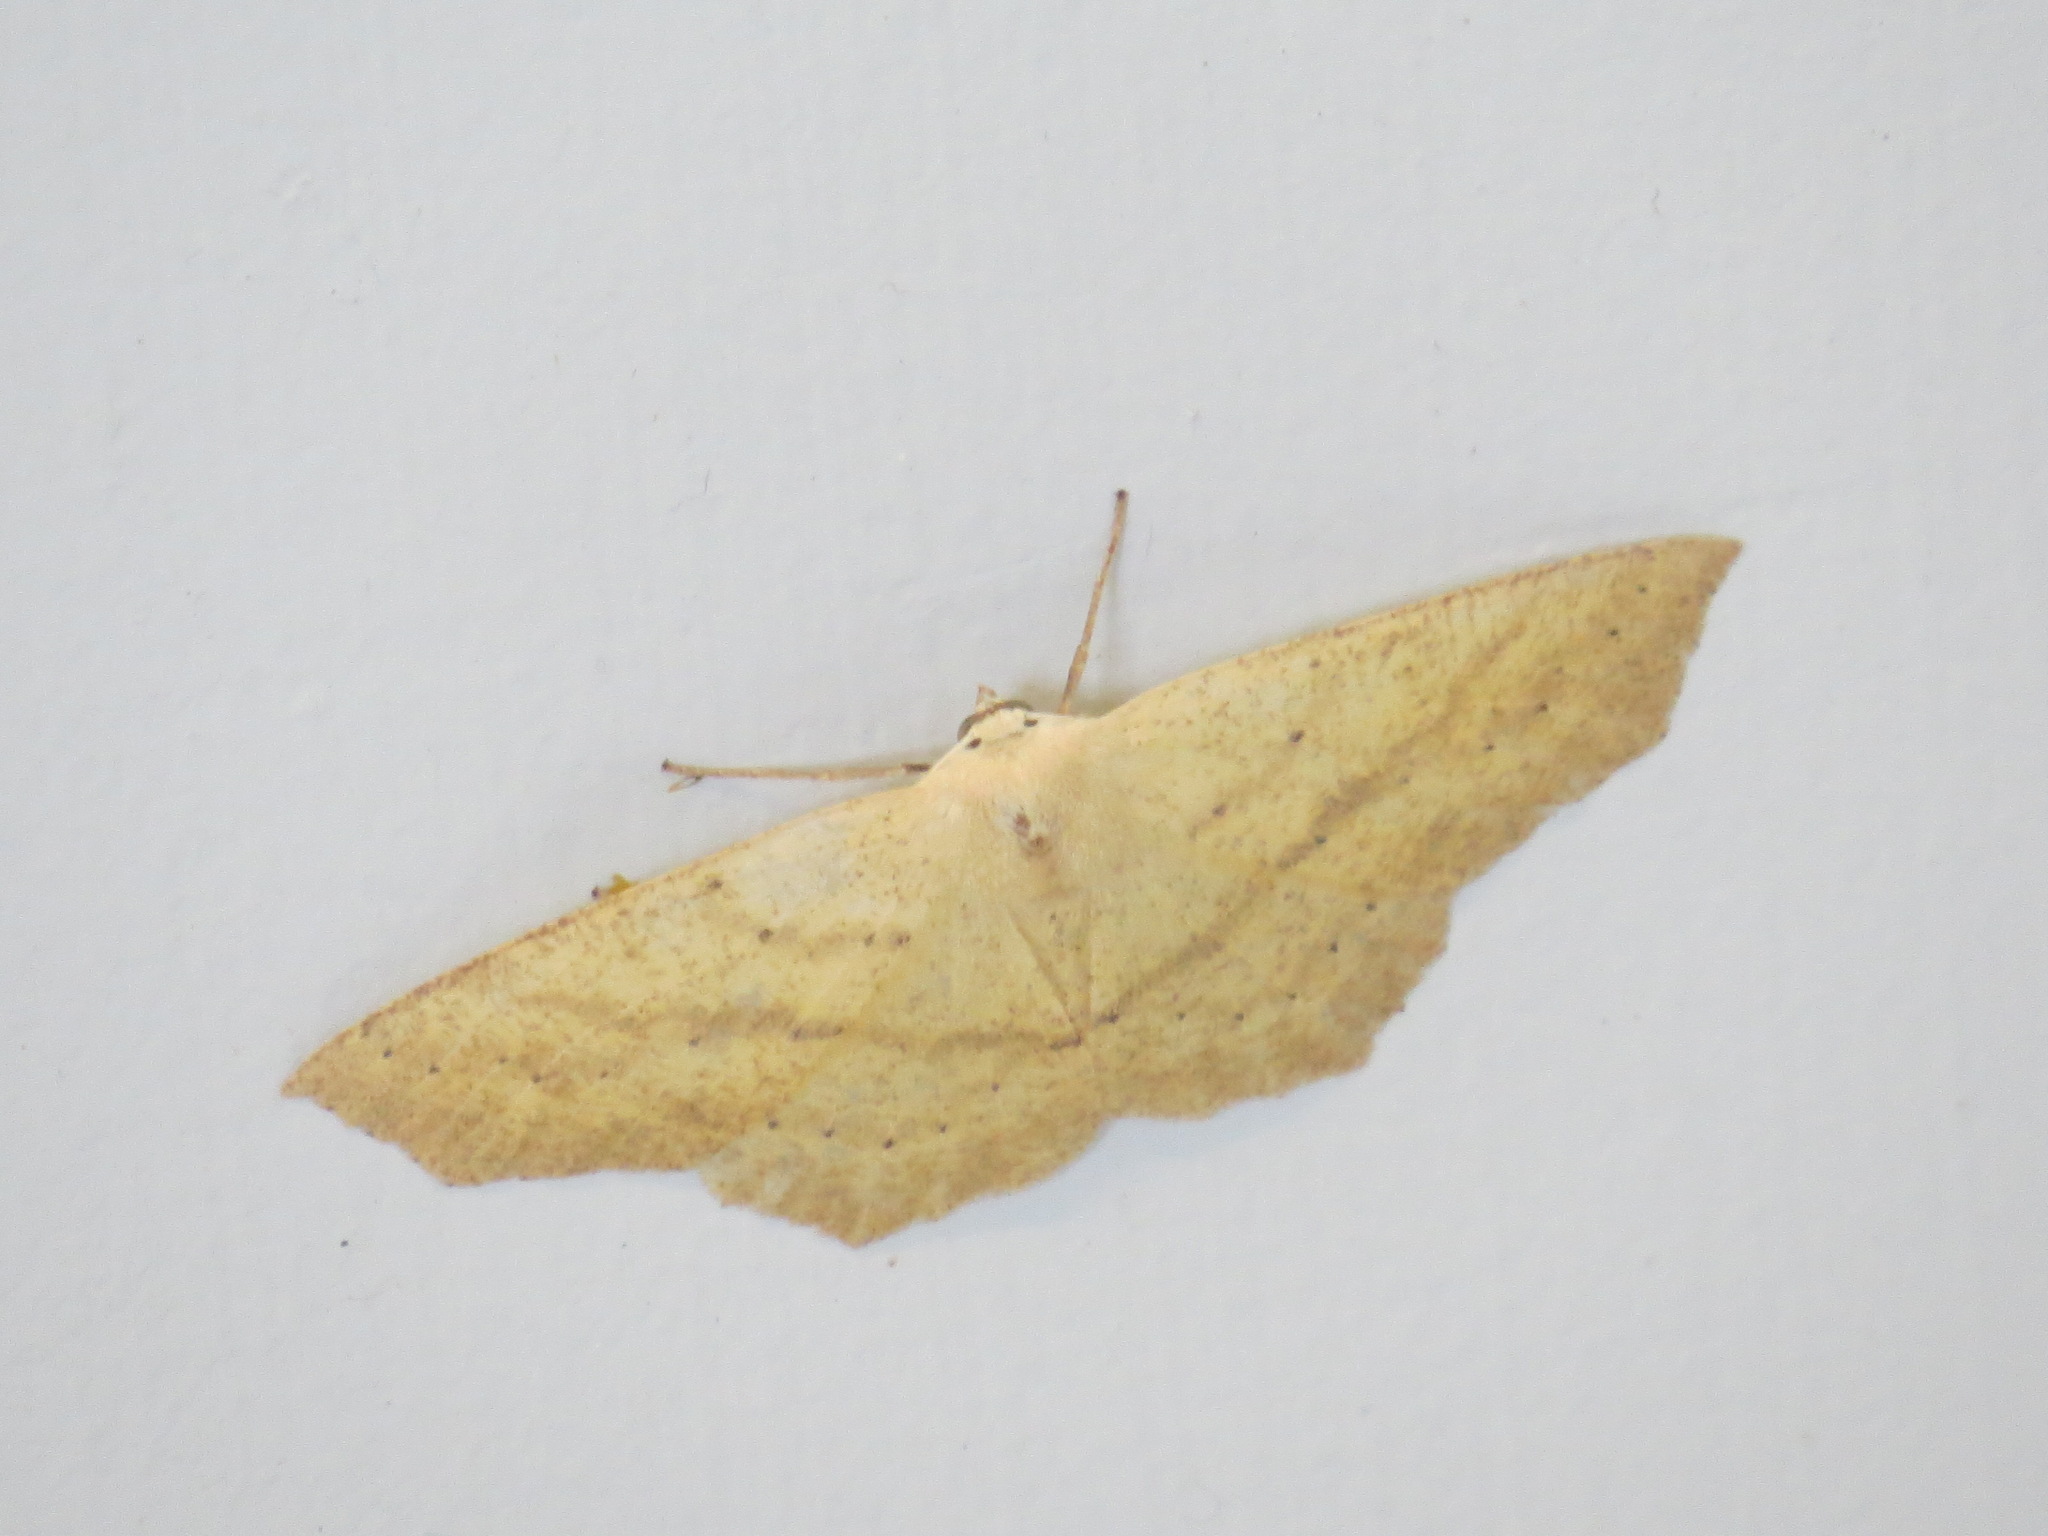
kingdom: Animalia
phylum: Arthropoda
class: Insecta
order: Lepidoptera
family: Geometridae
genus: Sabulodes
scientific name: Sabulodes aegrotata
